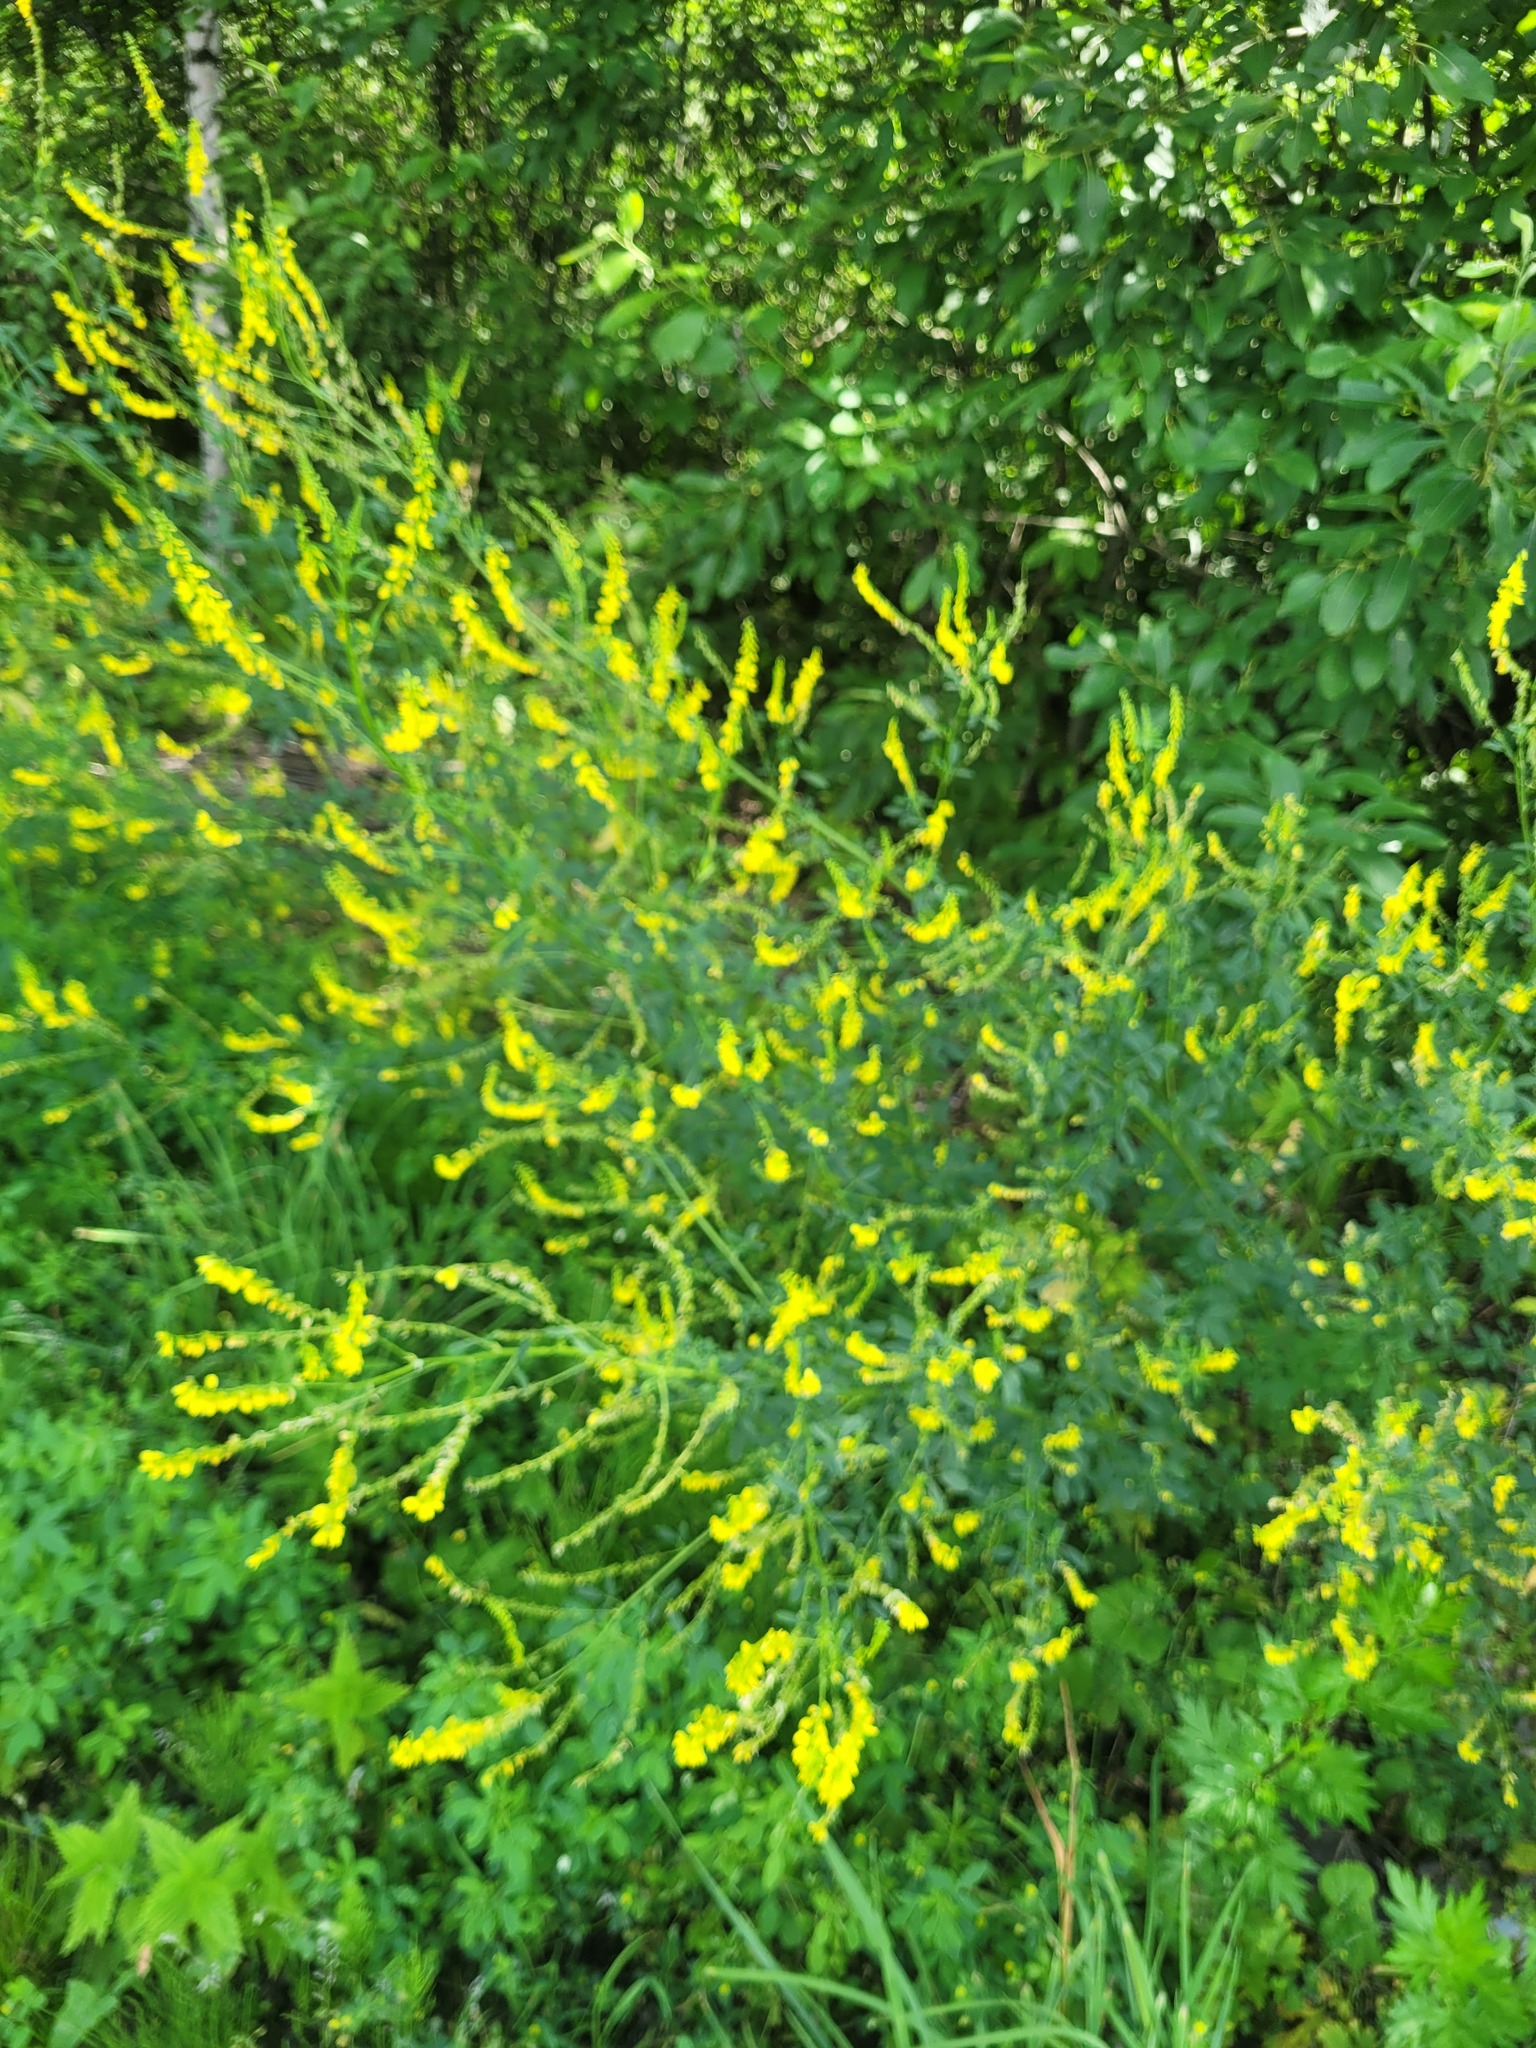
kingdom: Plantae
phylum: Tracheophyta
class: Magnoliopsida
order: Fabales
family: Fabaceae
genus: Melilotus
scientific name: Melilotus officinalis
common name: Sweetclover
